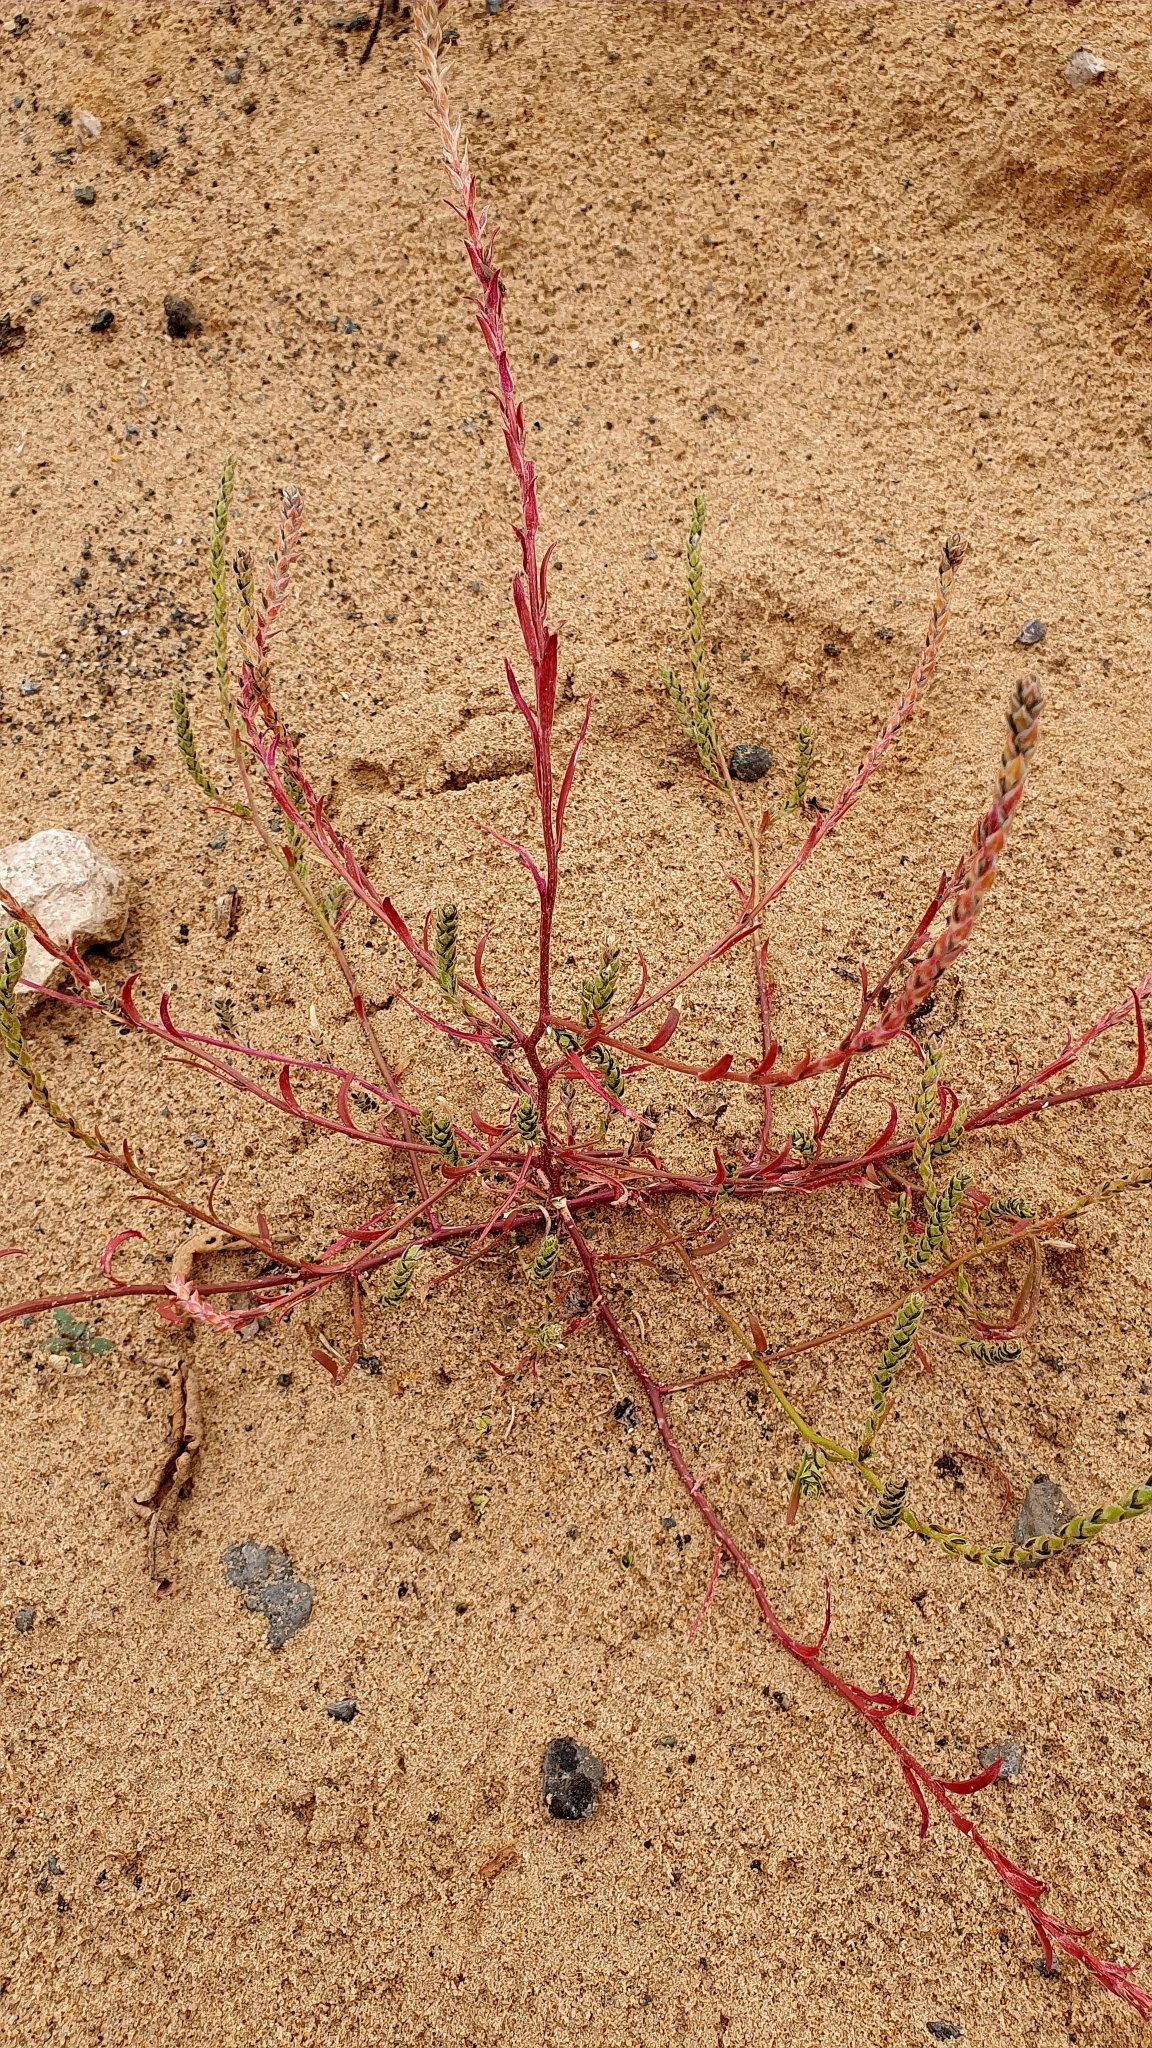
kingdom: Plantae
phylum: Tracheophyta
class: Magnoliopsida
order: Caryophyllales
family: Amaranthaceae
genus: Corispermum
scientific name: Corispermum hyssopifolium
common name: Bugseed
